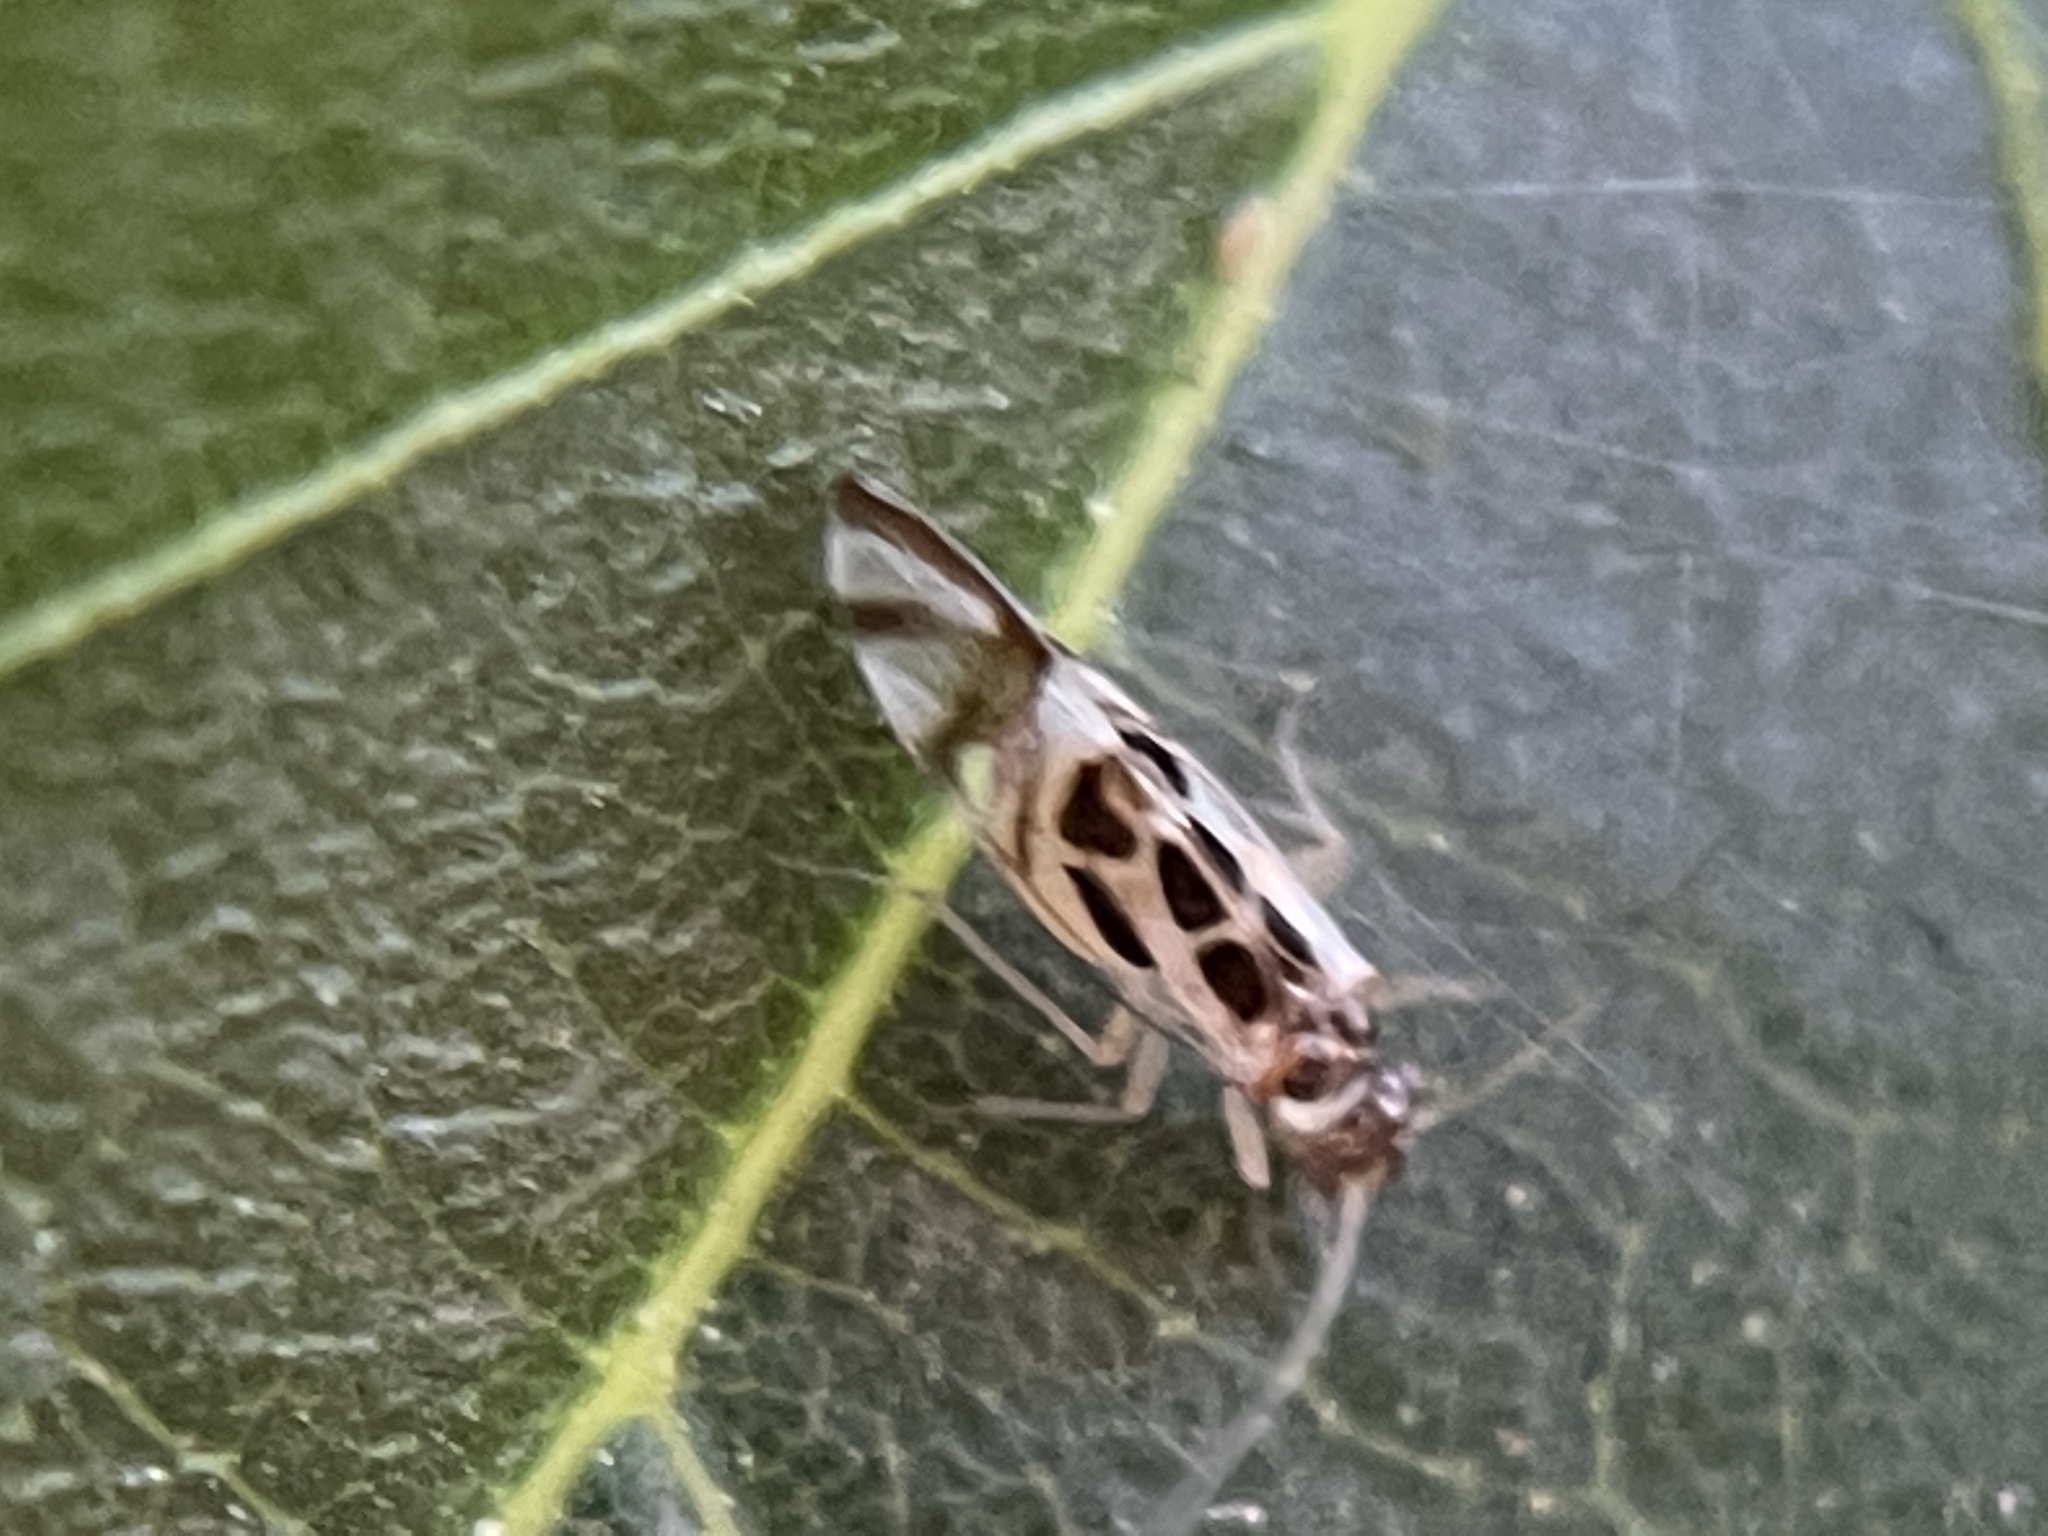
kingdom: Animalia
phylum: Arthropoda
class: Insecta
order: Psocodea
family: Stenopsocidae
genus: Graphopsocus
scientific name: Graphopsocus cruciatus
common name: Lizard bark louse
